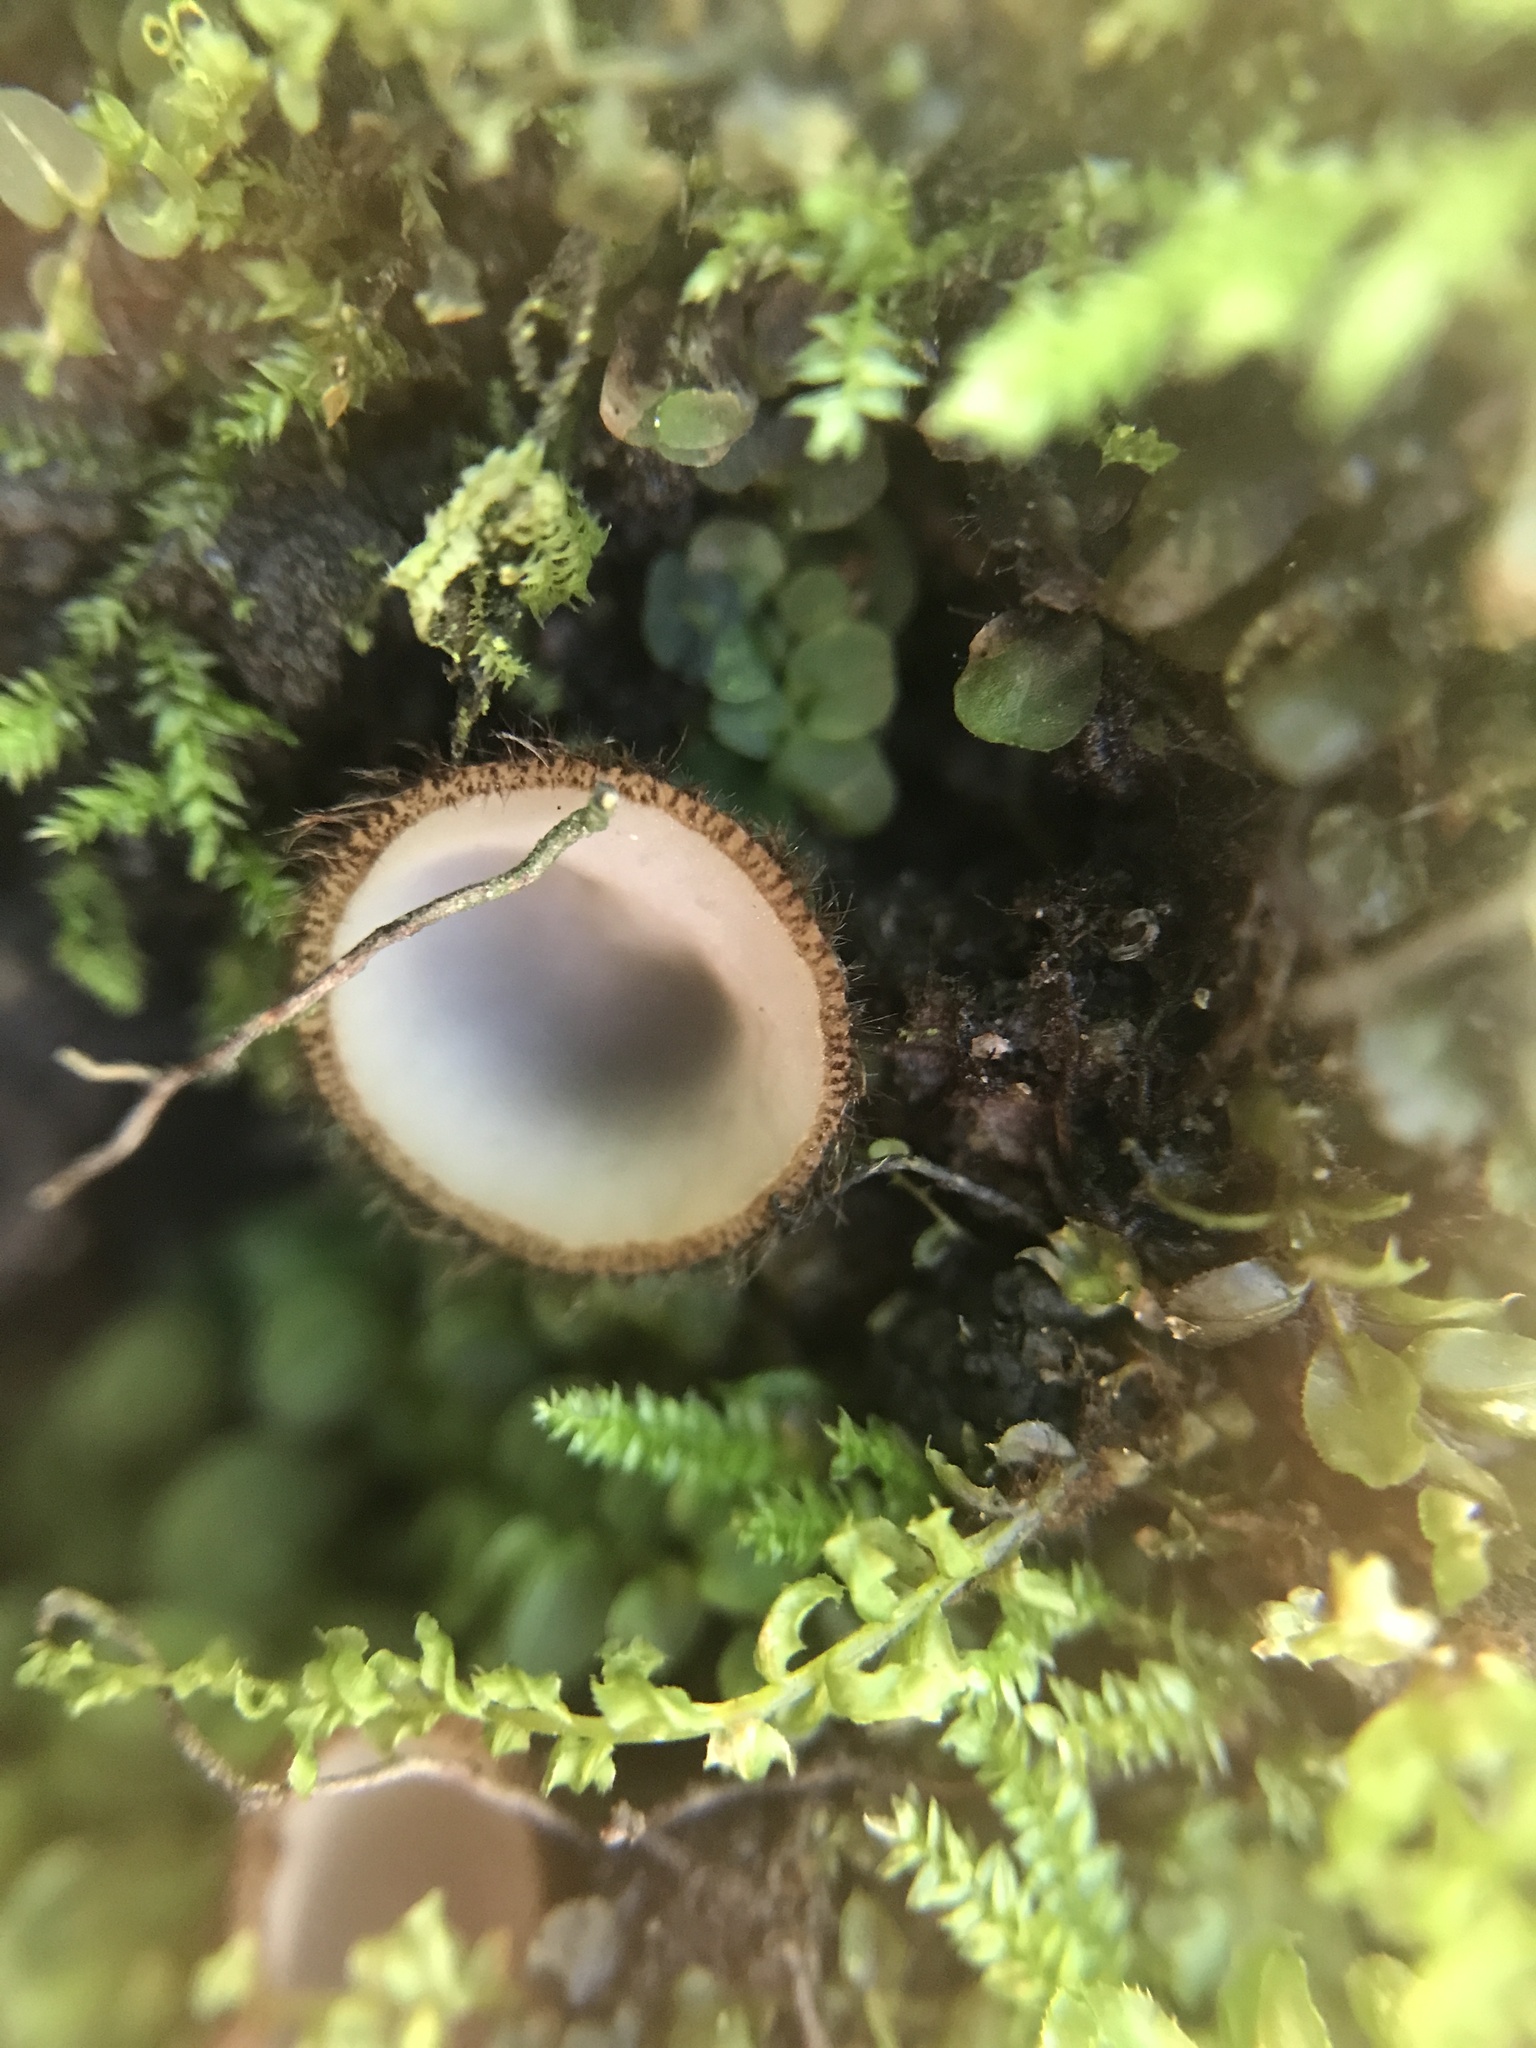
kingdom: Fungi
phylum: Ascomycota
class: Pezizomycetes
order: Pezizales
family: Pyronemataceae
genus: Humaria
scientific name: Humaria hemisphaerica
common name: Glazed cup
